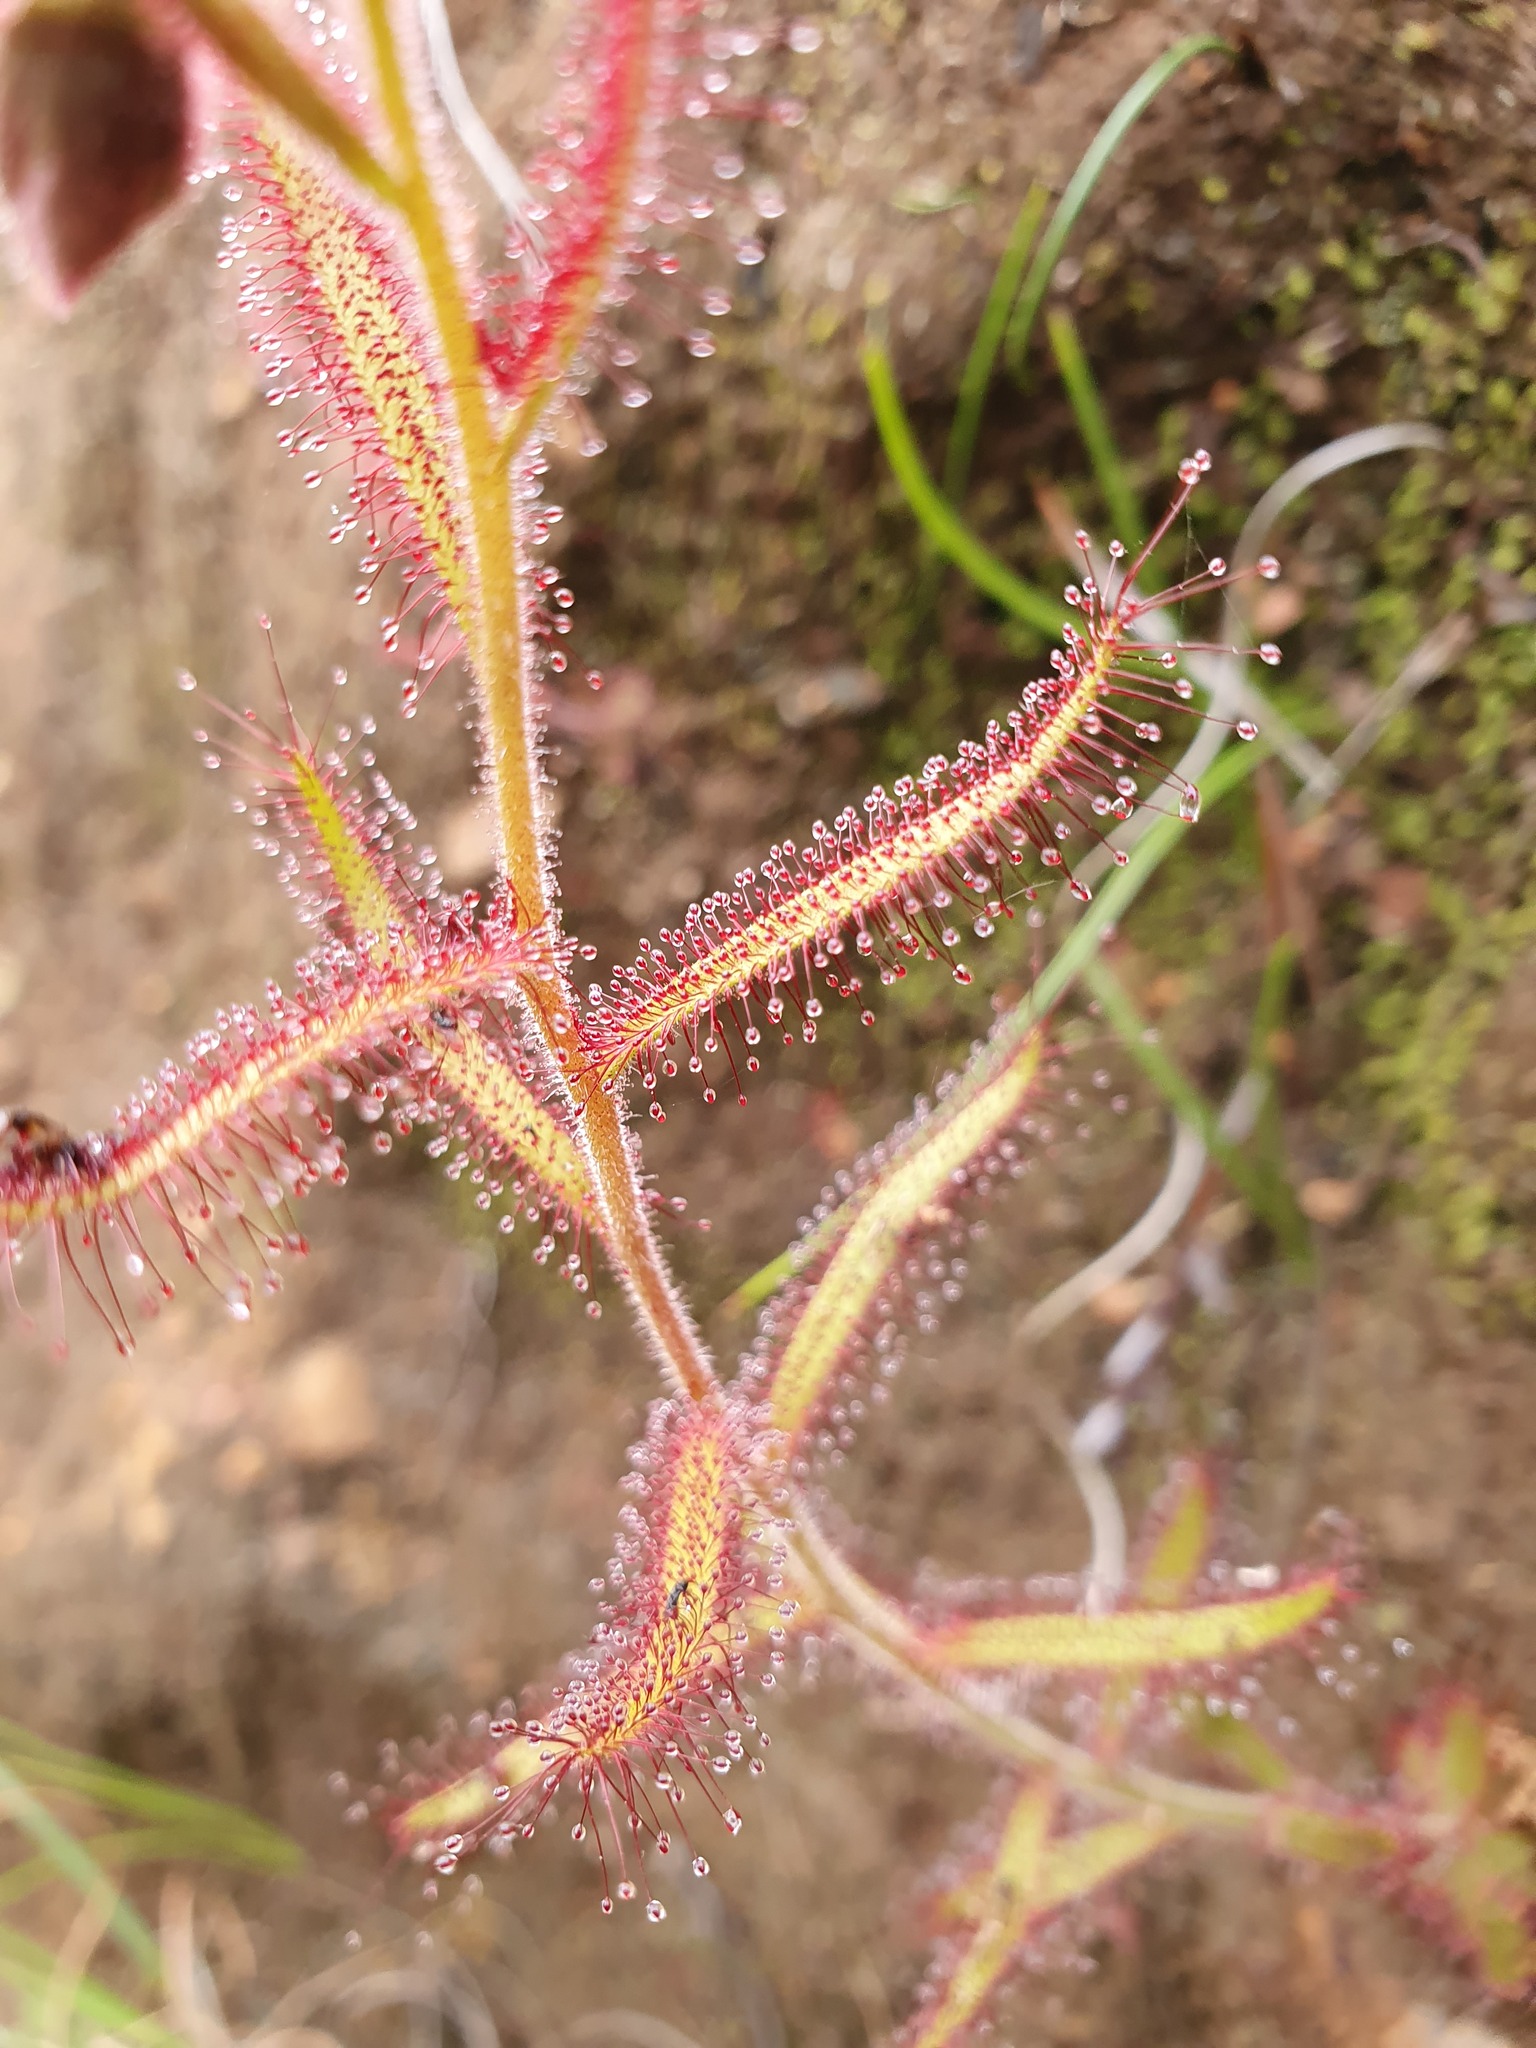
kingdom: Plantae
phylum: Tracheophyta
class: Magnoliopsida
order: Caryophyllales
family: Droseraceae
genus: Drosera
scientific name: Drosera cistiflora
